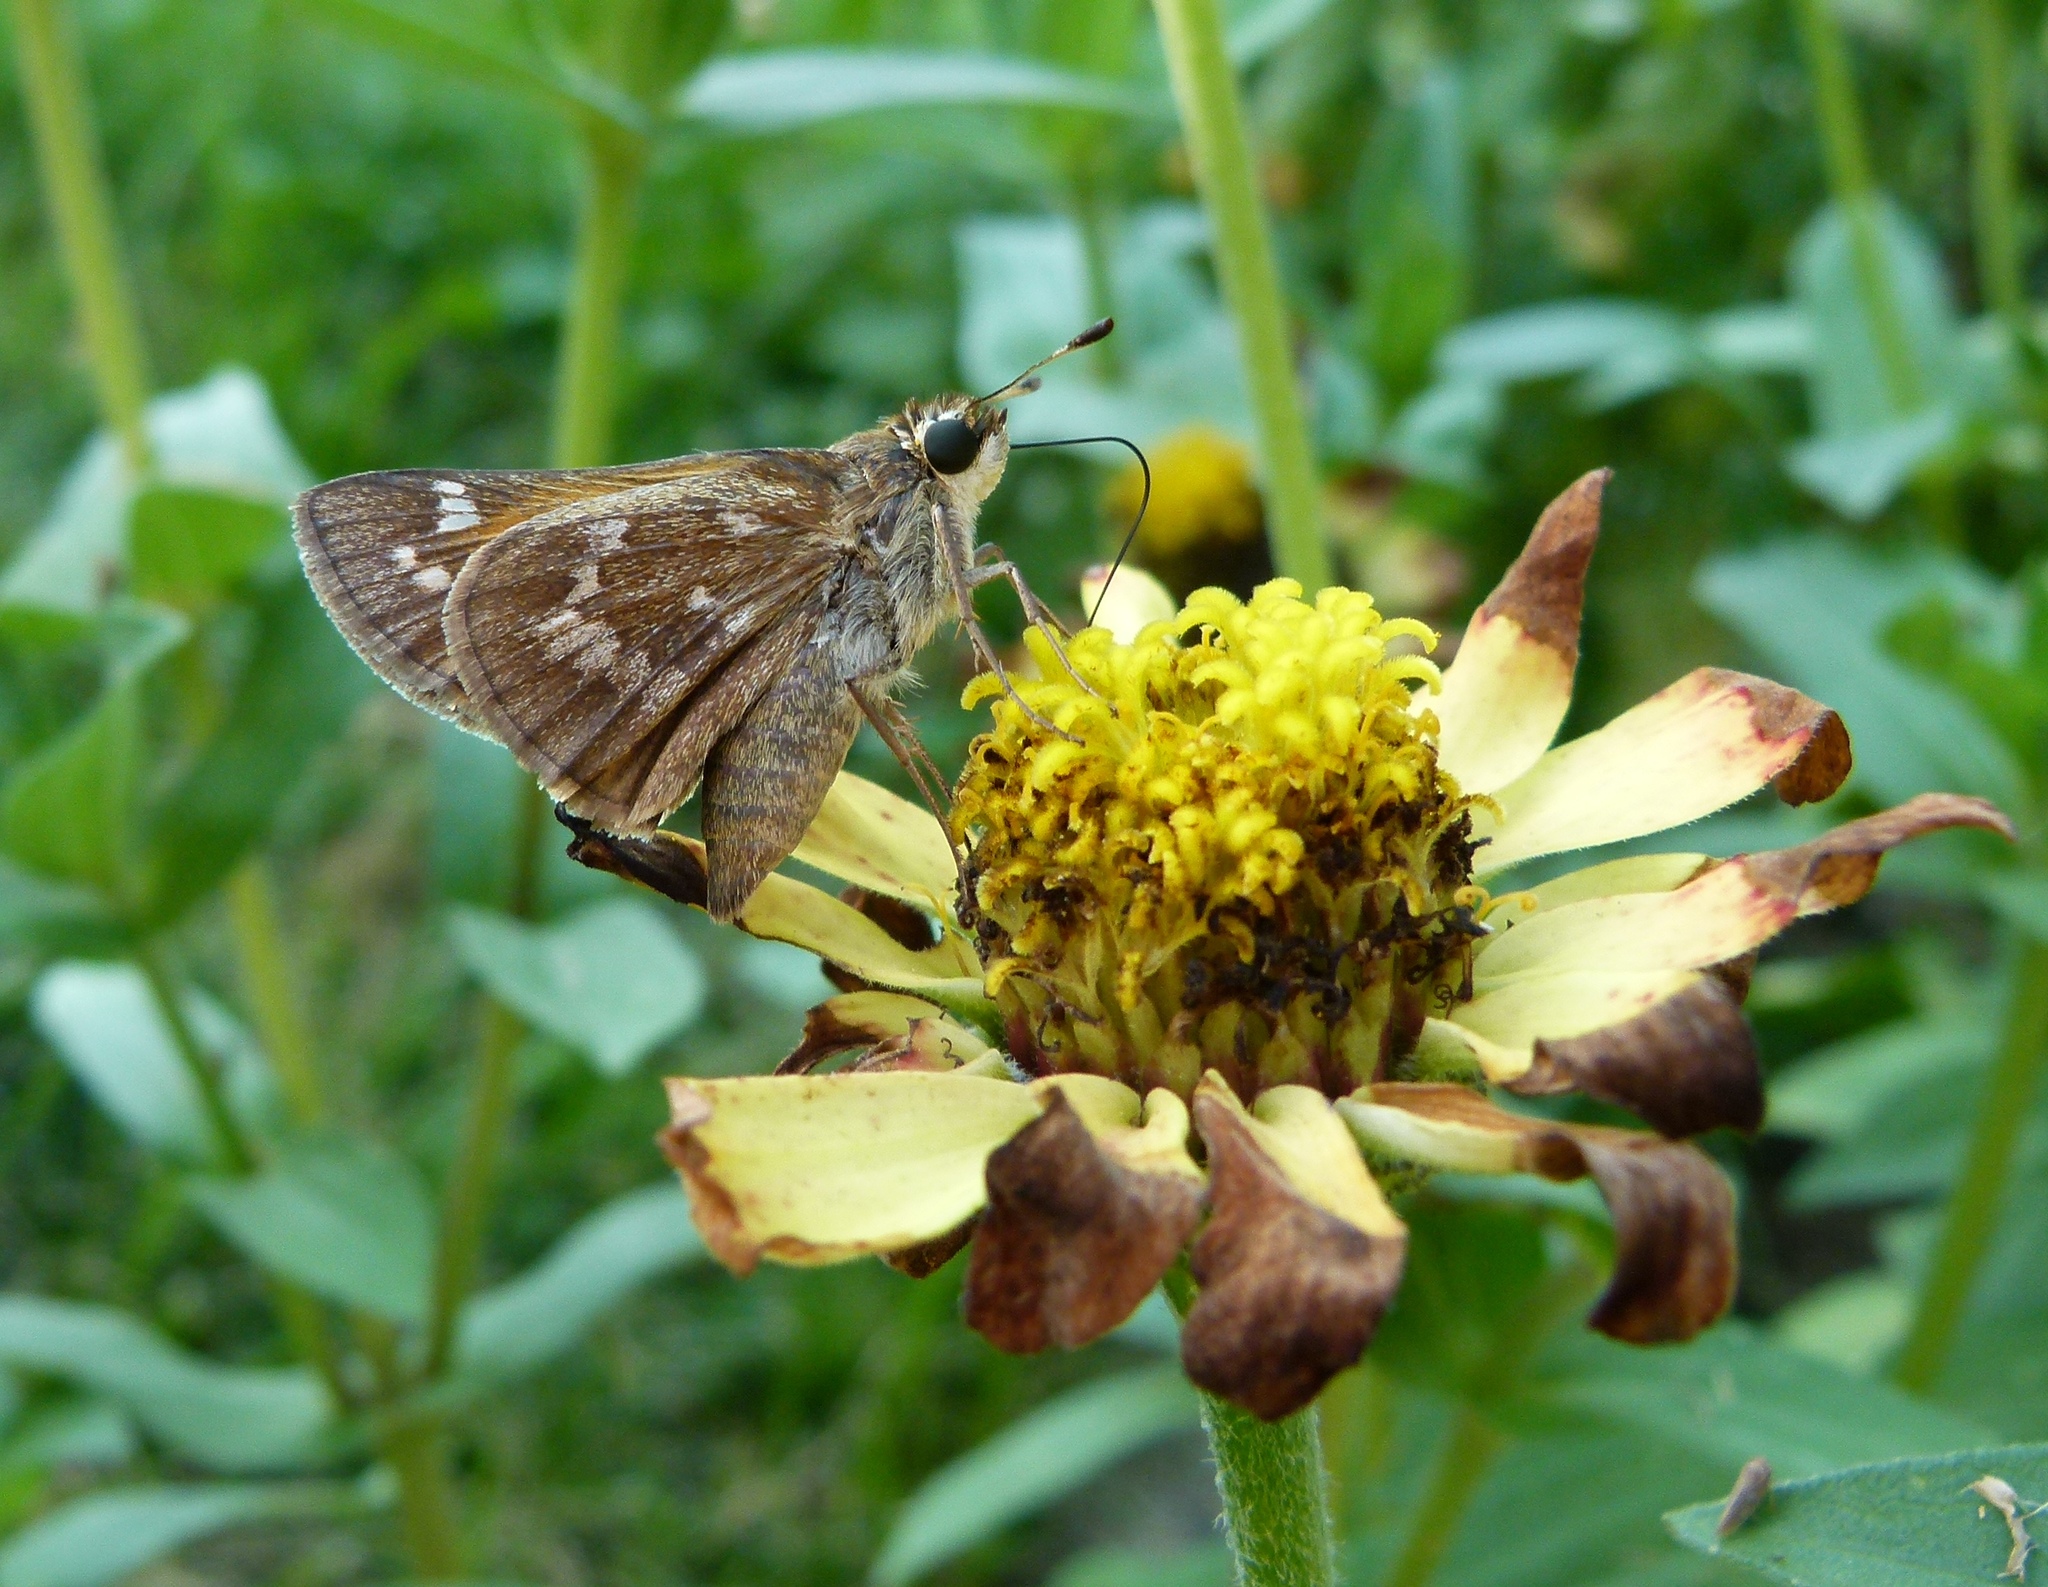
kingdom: Animalia
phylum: Arthropoda
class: Insecta
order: Lepidoptera
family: Hesperiidae
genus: Atalopedes
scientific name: Atalopedes
